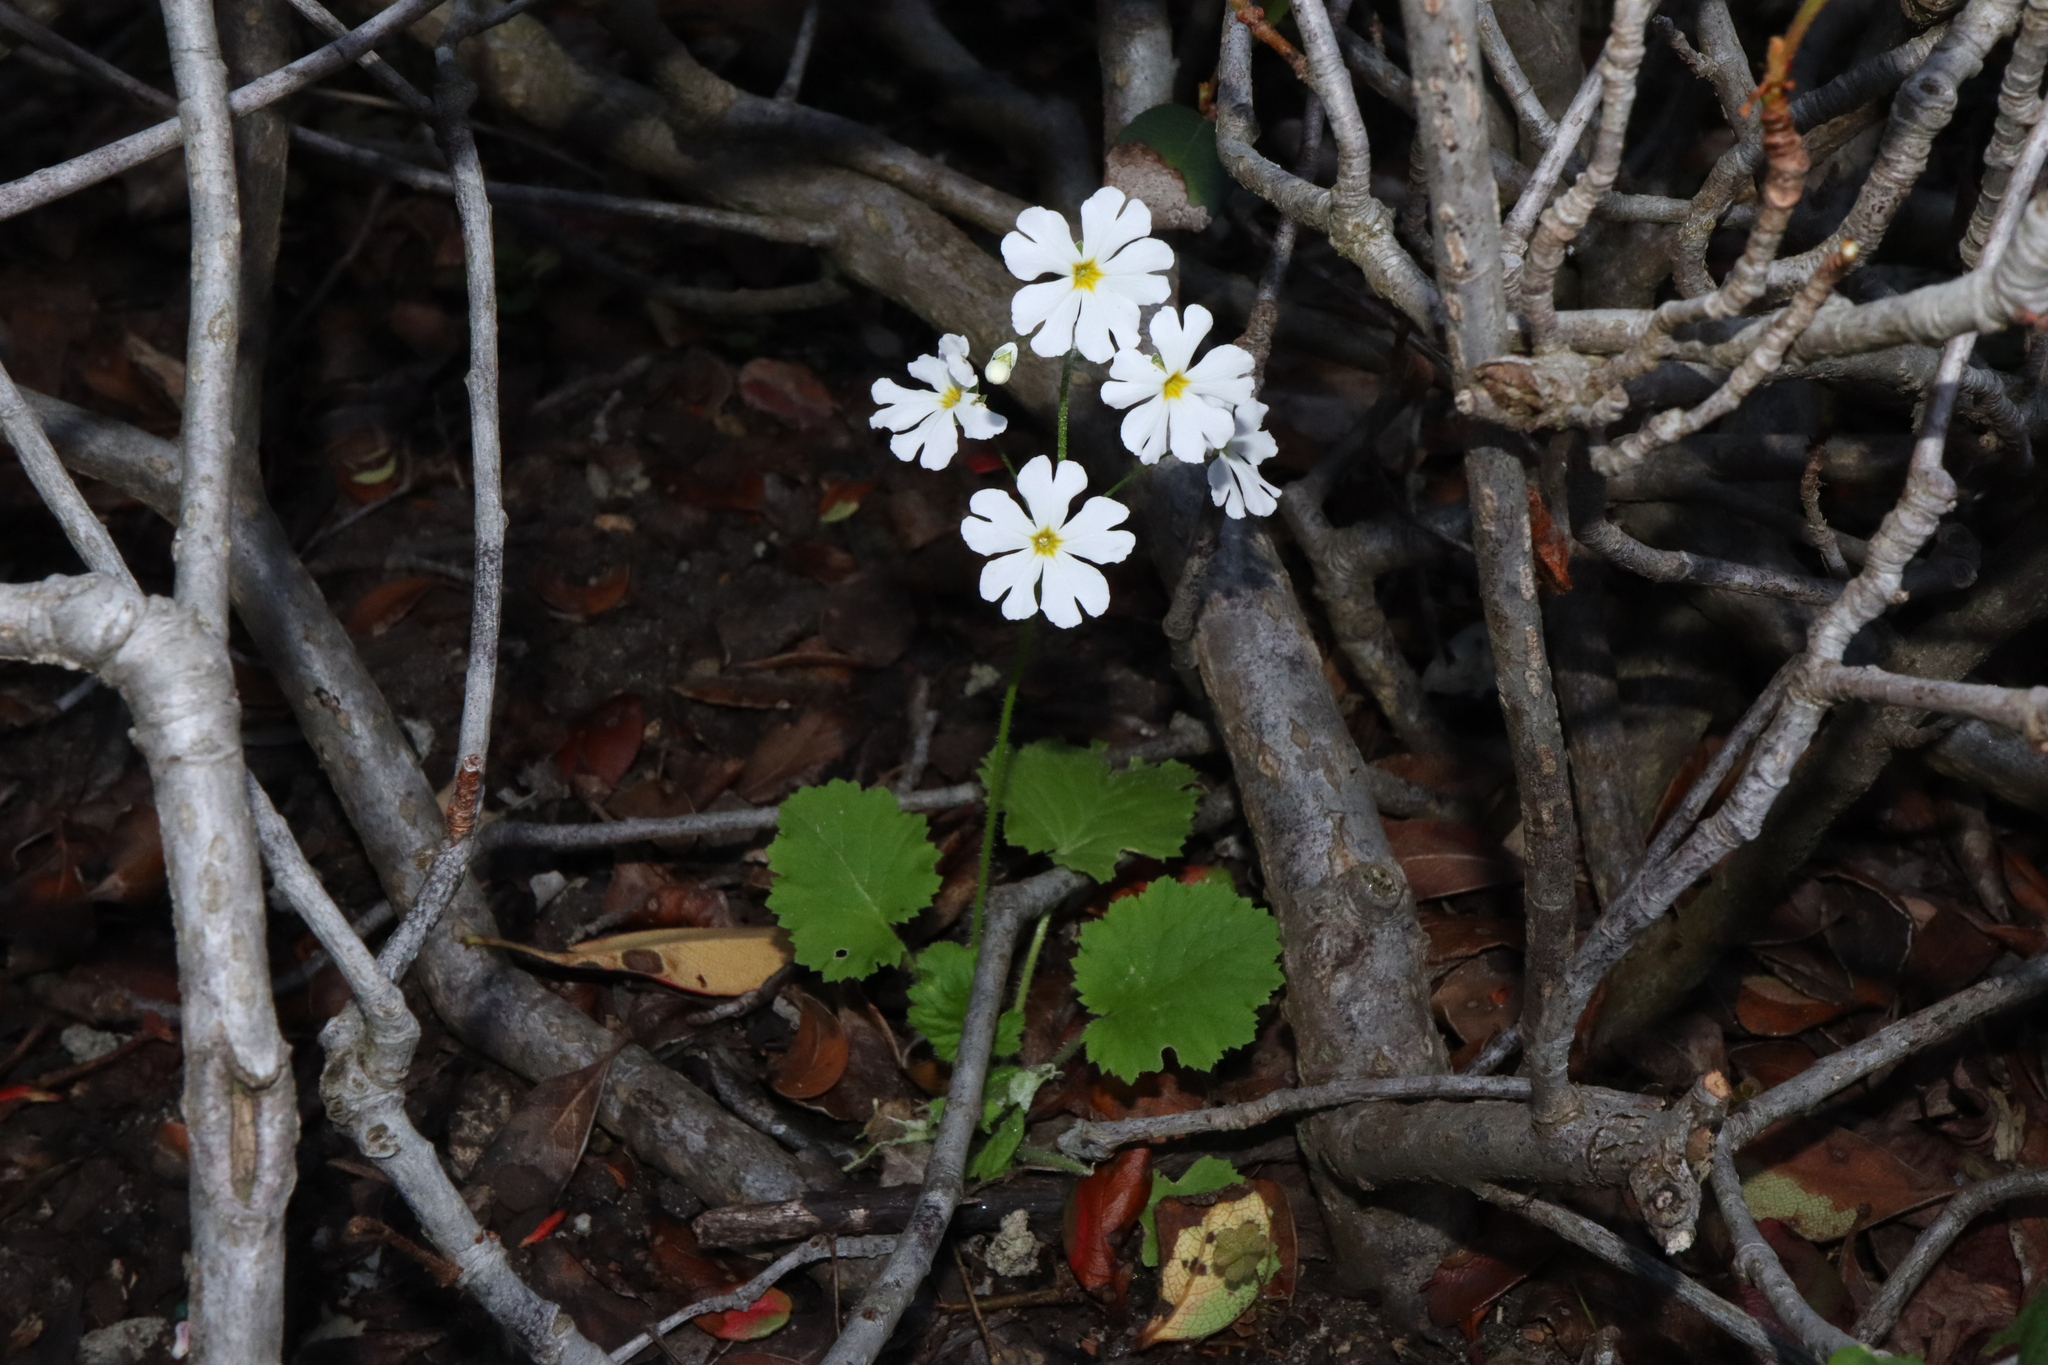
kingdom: Plantae
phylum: Tracheophyta
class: Magnoliopsida
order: Ericales
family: Primulaceae
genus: Primula
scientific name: Primula malacoides
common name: Baby primrose
